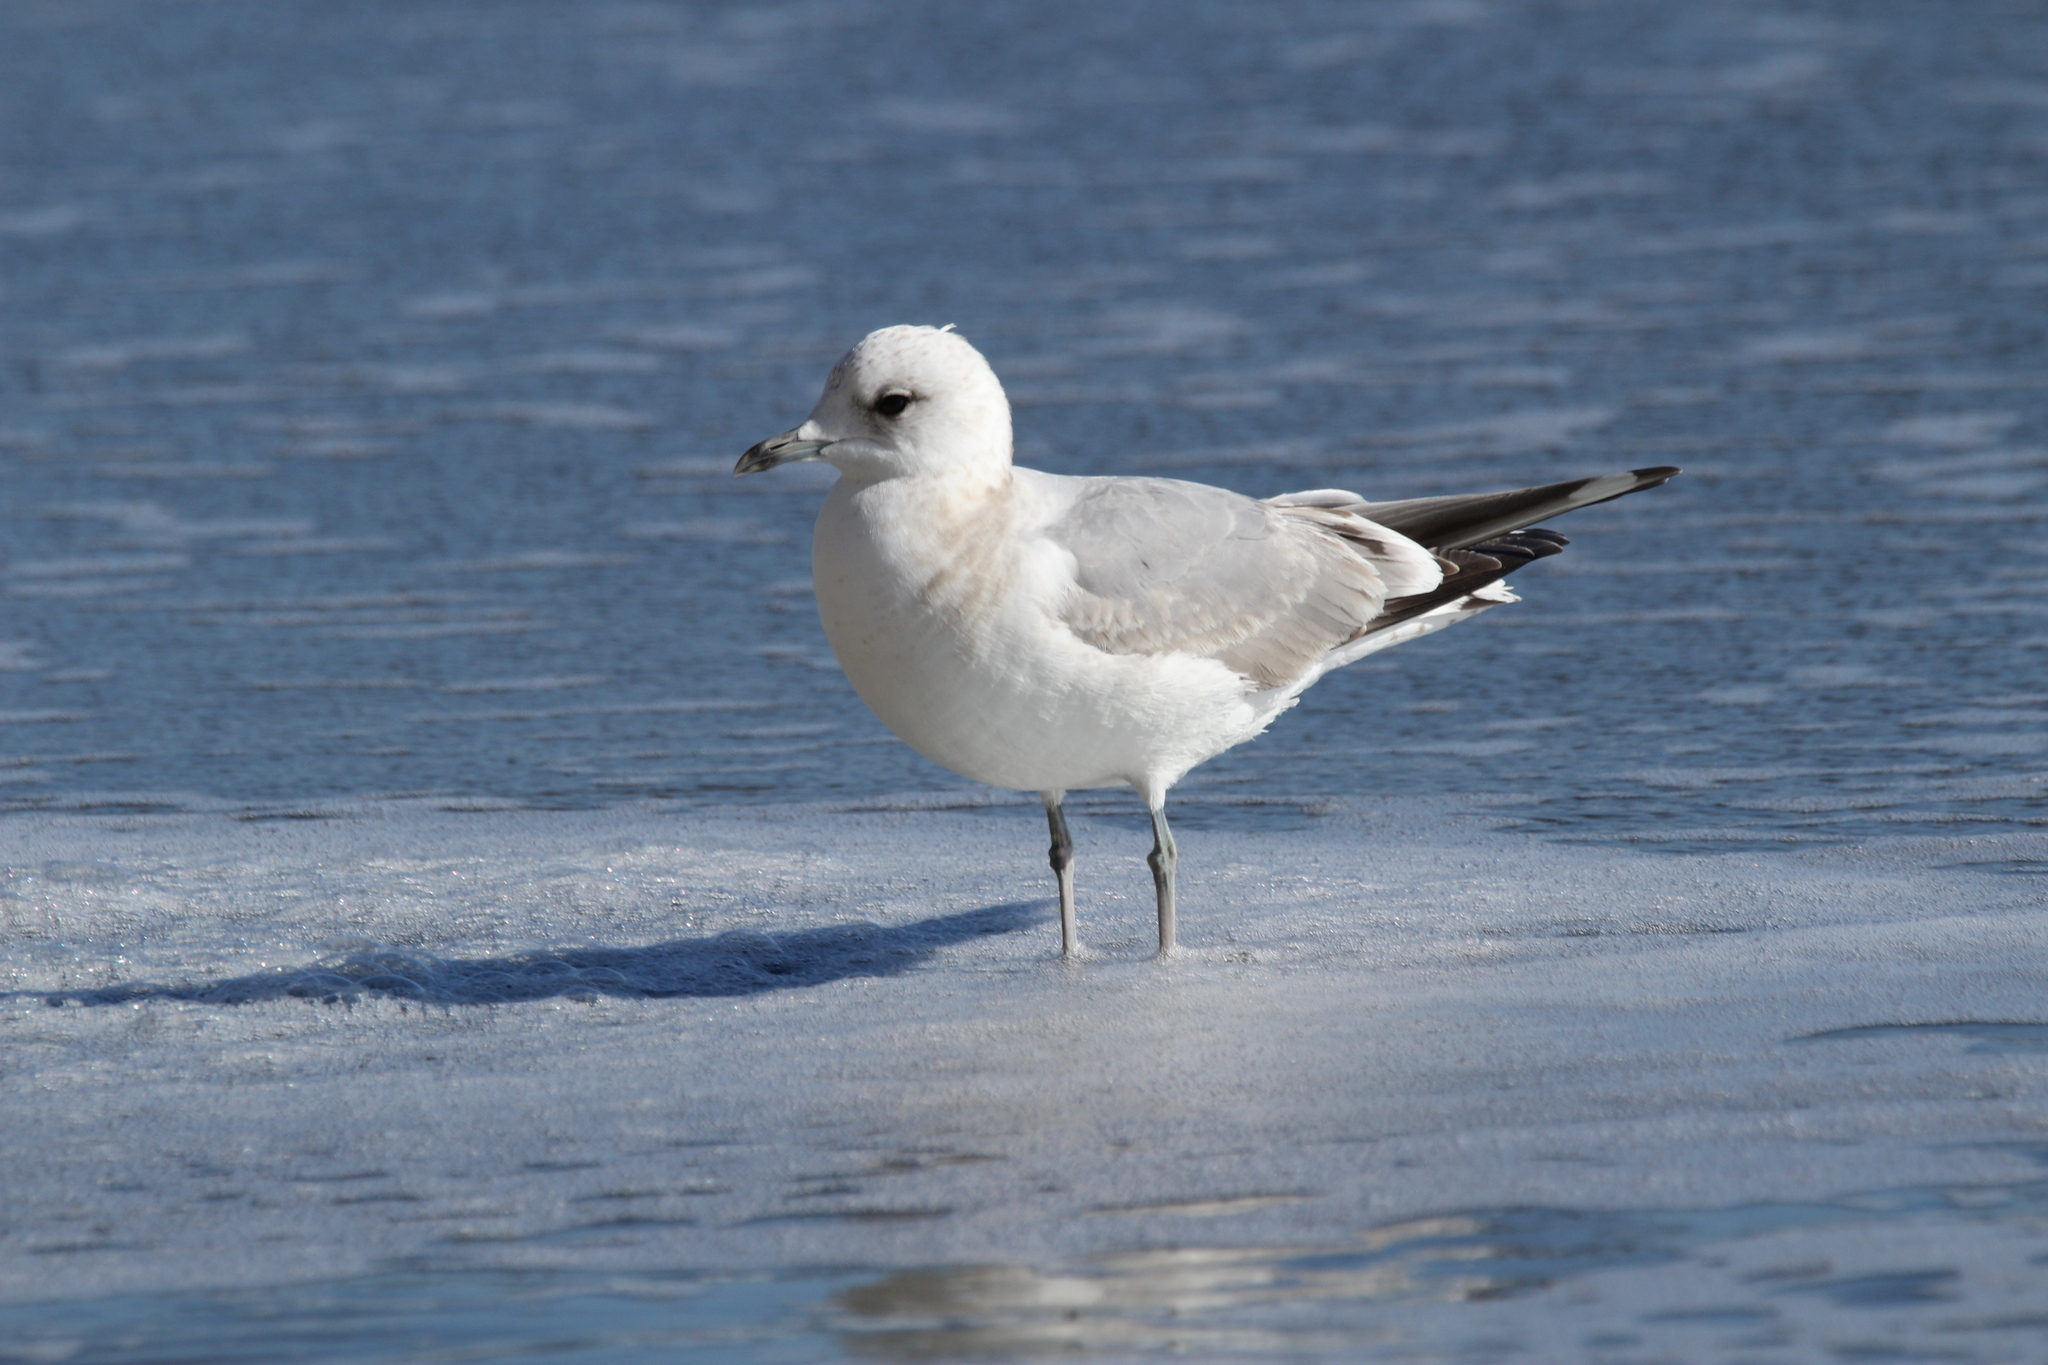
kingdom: Animalia
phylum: Chordata
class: Aves
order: Charadriiformes
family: Laridae
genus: Larus
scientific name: Larus brachyrhynchus
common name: Short-billed gull
